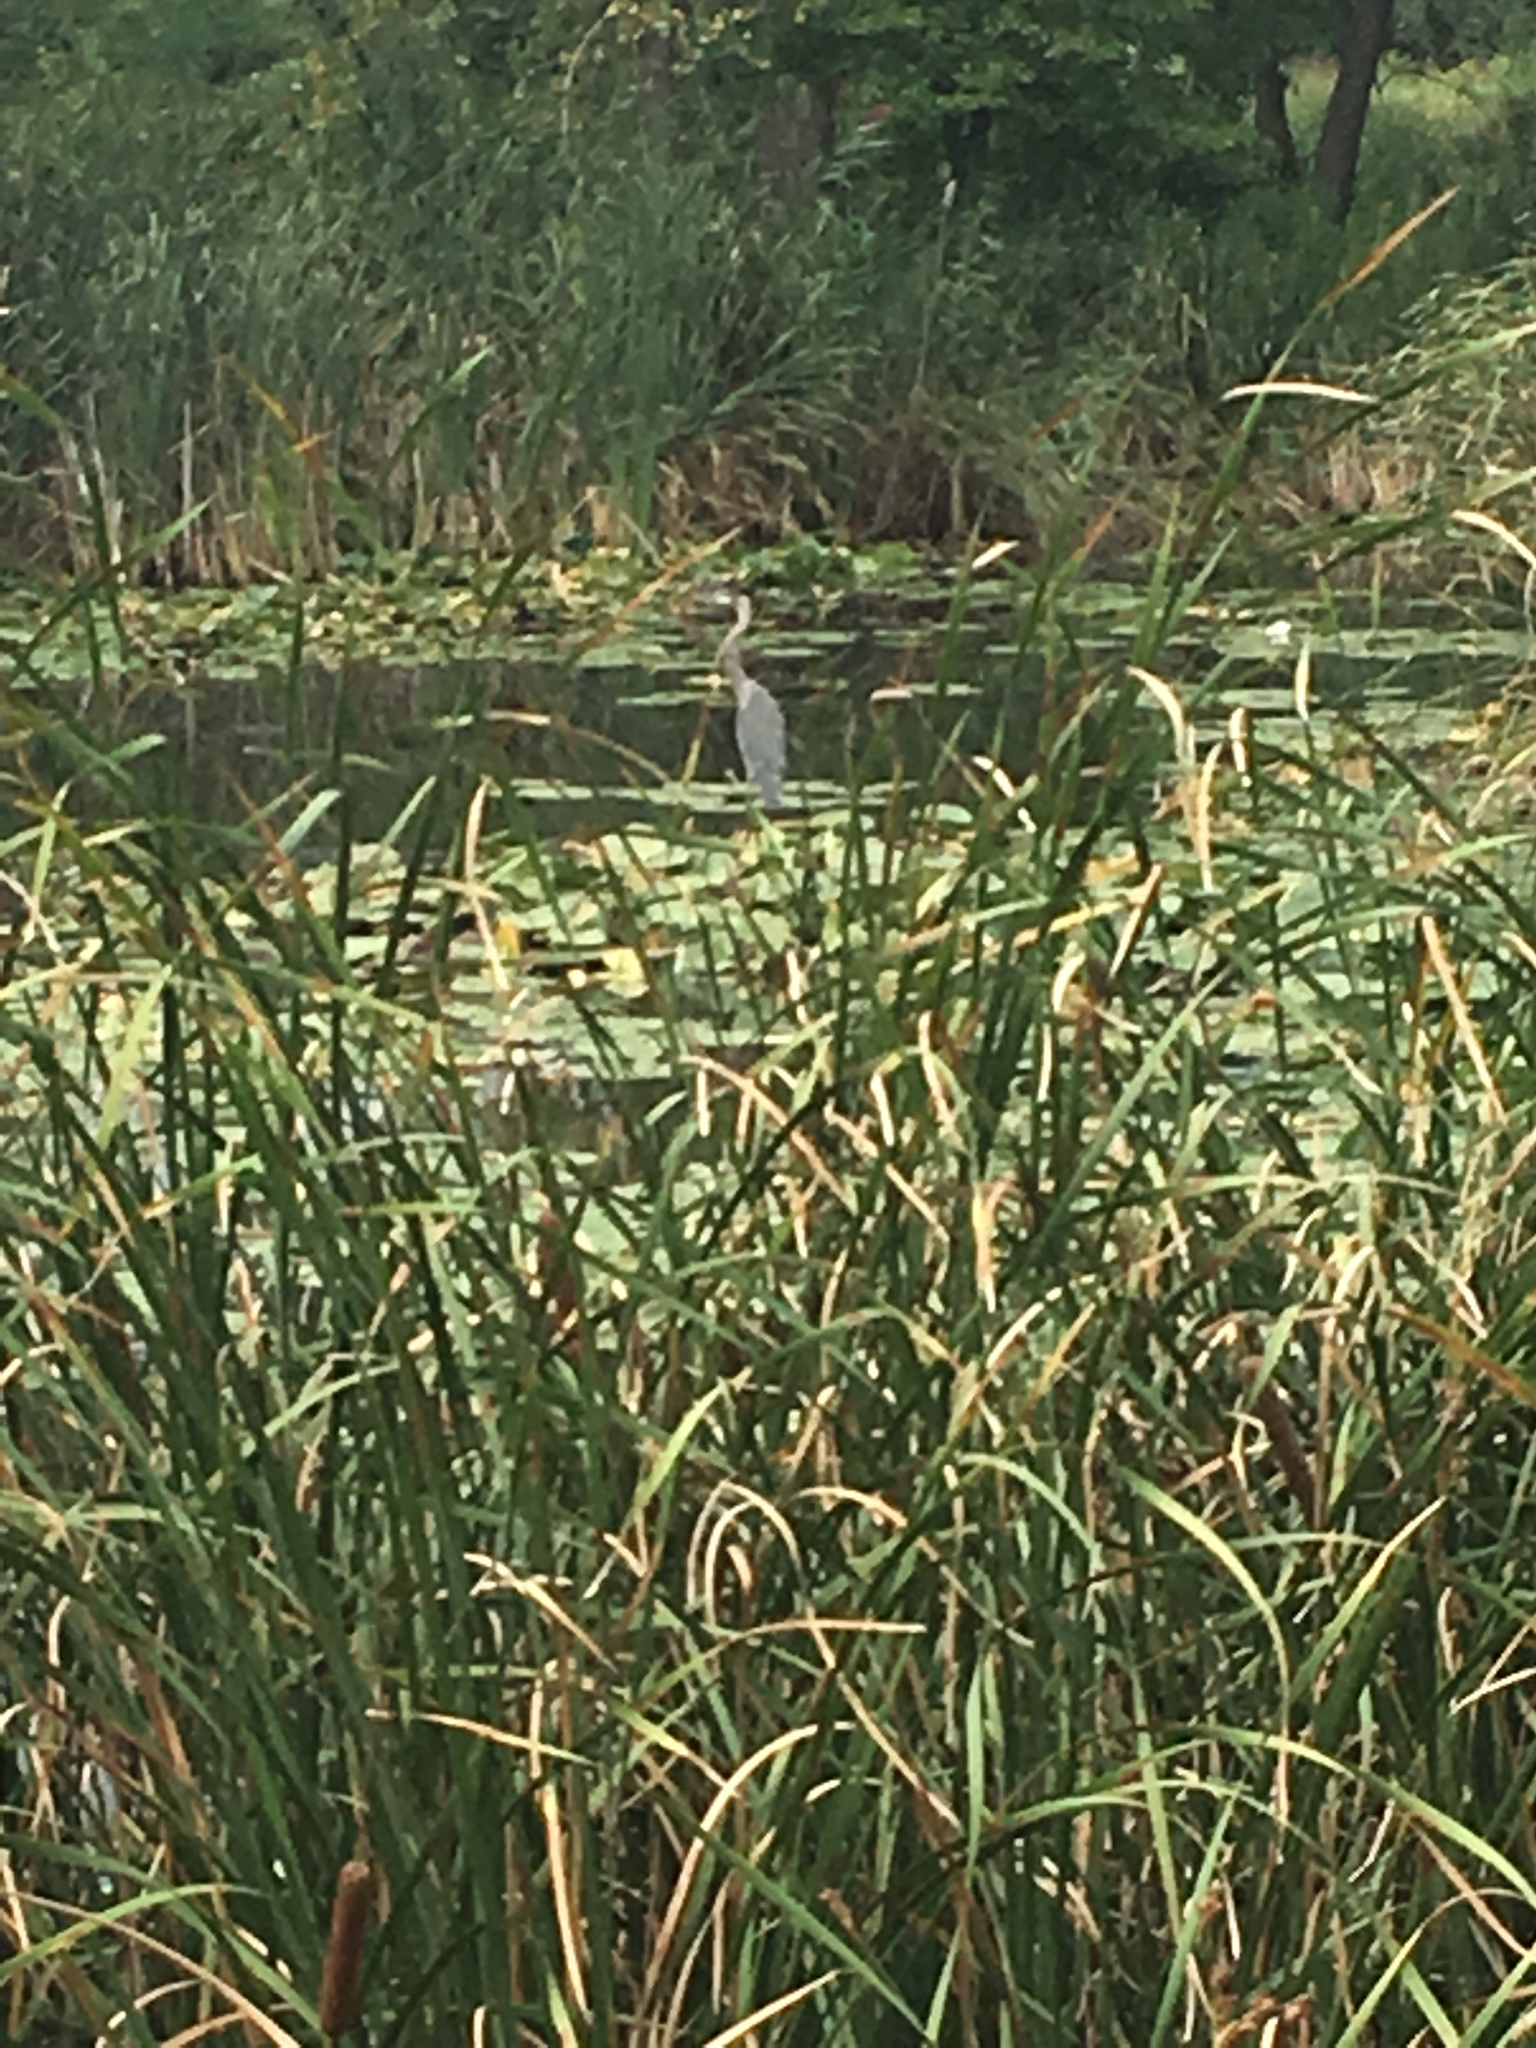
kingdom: Animalia
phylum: Chordata
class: Aves
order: Pelecaniformes
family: Ardeidae
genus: Ardea
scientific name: Ardea herodias
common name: Great blue heron
